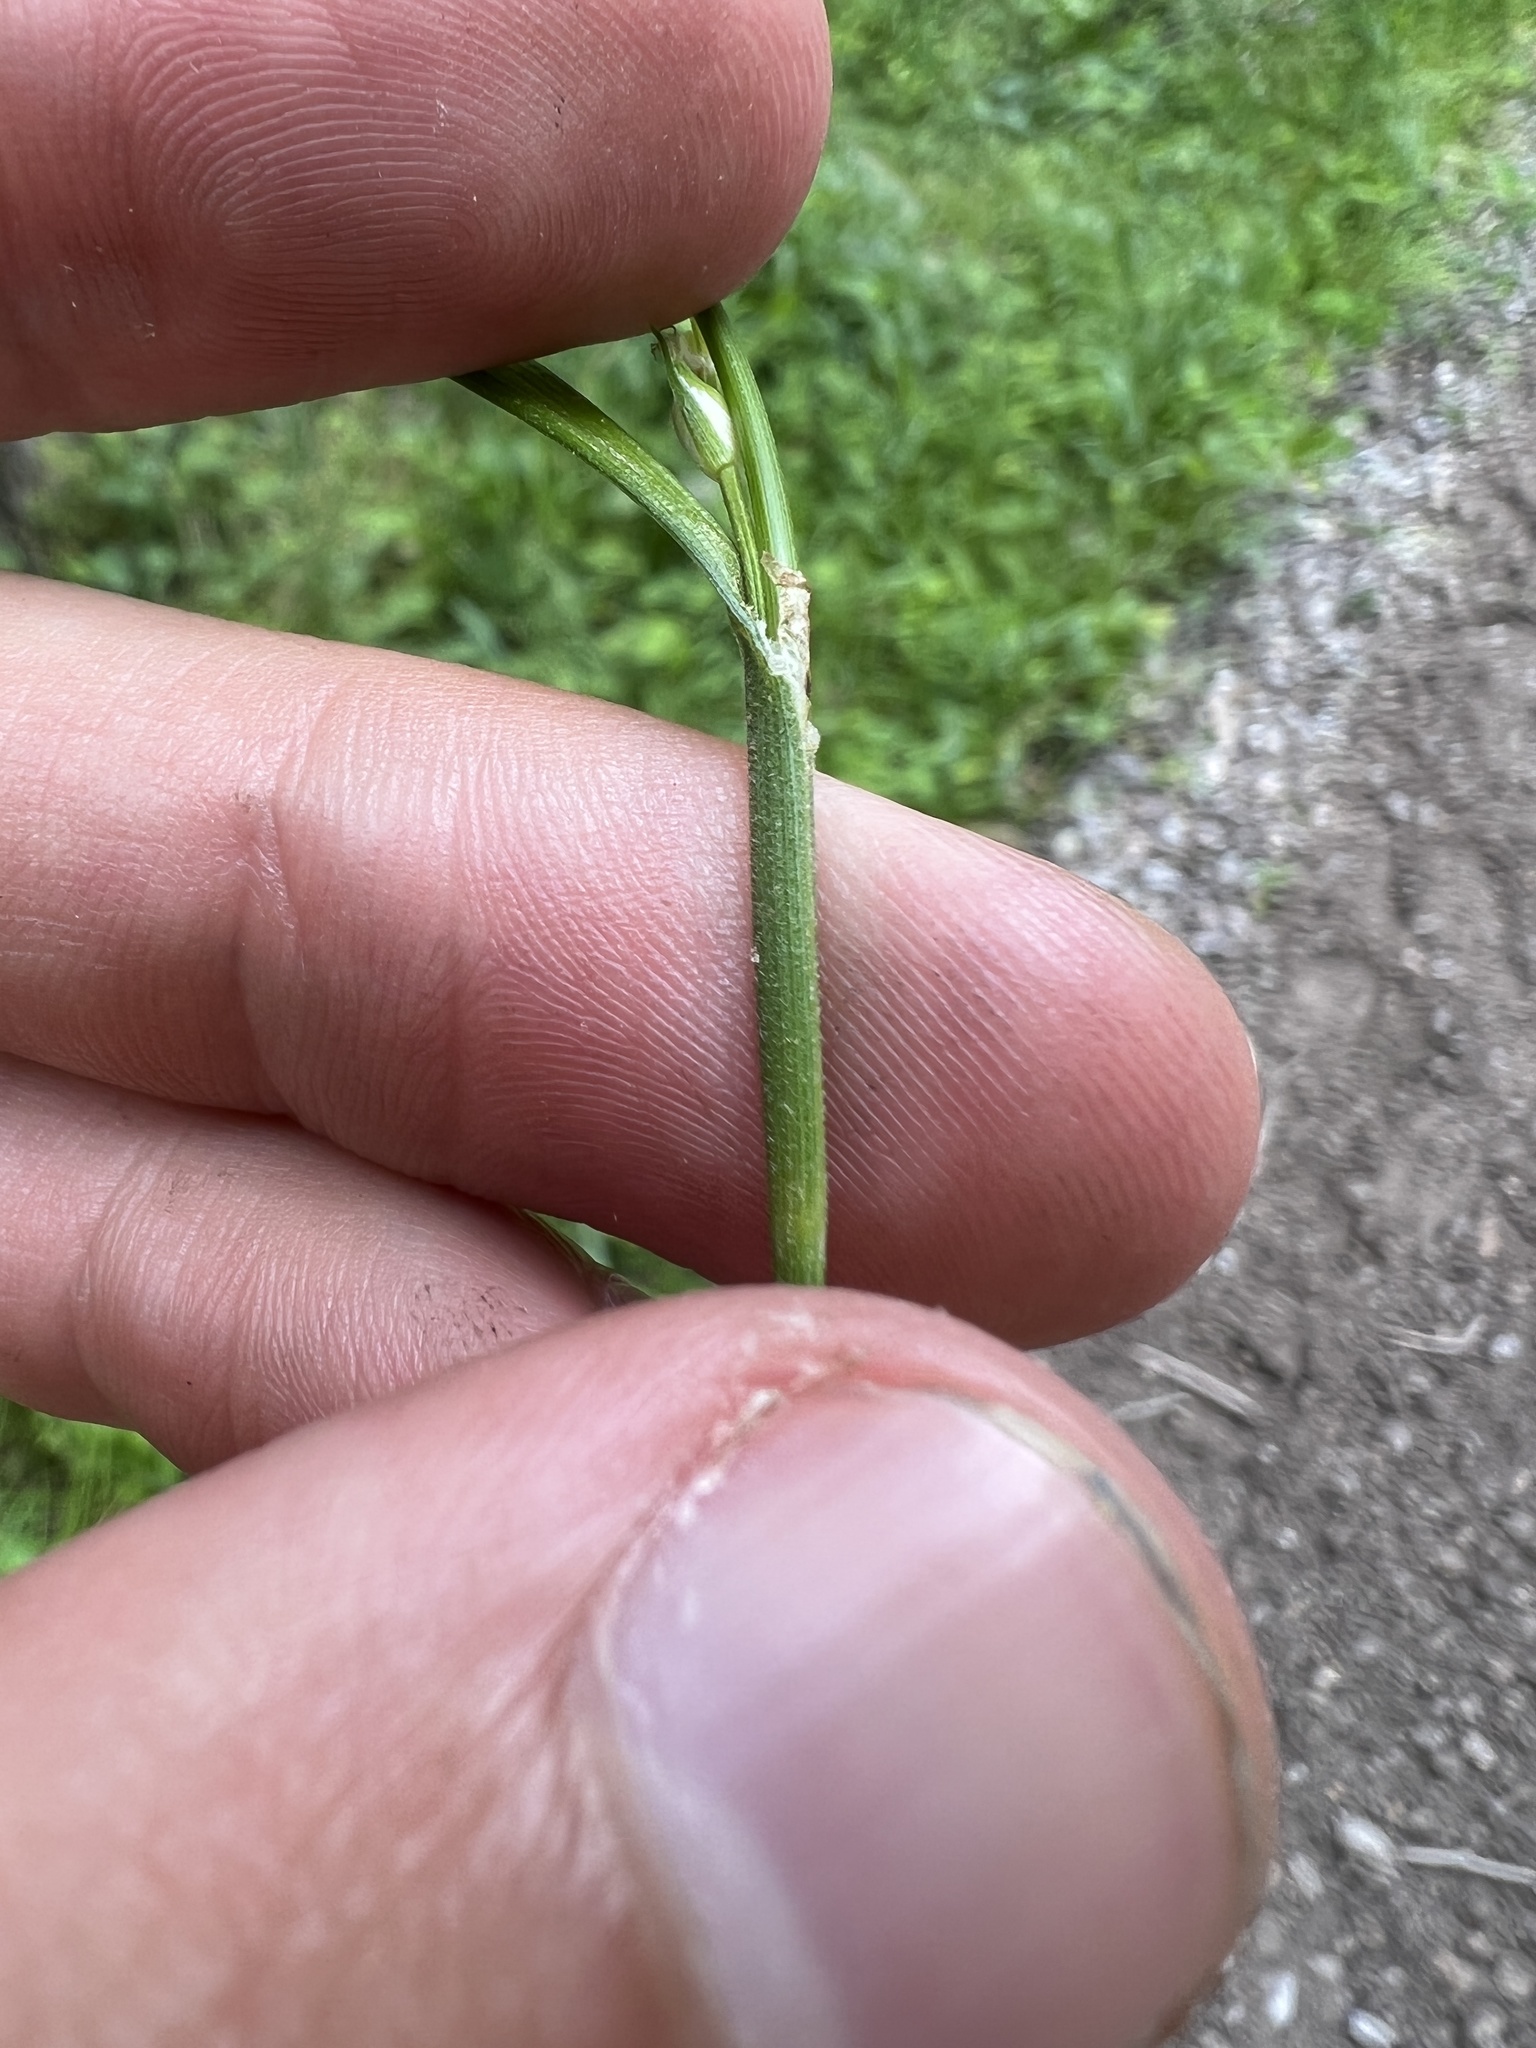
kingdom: Plantae
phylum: Tracheophyta
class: Liliopsida
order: Poales
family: Cyperaceae
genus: Carex
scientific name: Carex hirtifolia
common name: Hairy sedge
